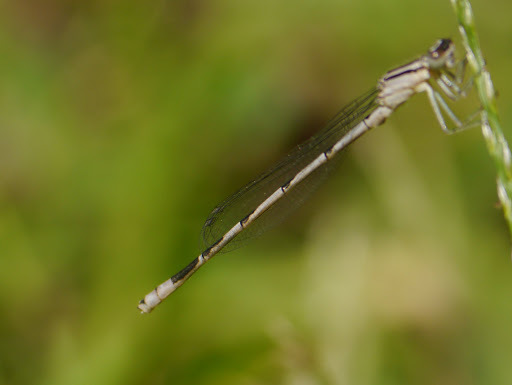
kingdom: Animalia
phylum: Arthropoda
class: Insecta
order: Odonata
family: Coenagrionidae
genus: Enallagma
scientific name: Enallagma durum
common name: Big bluet
